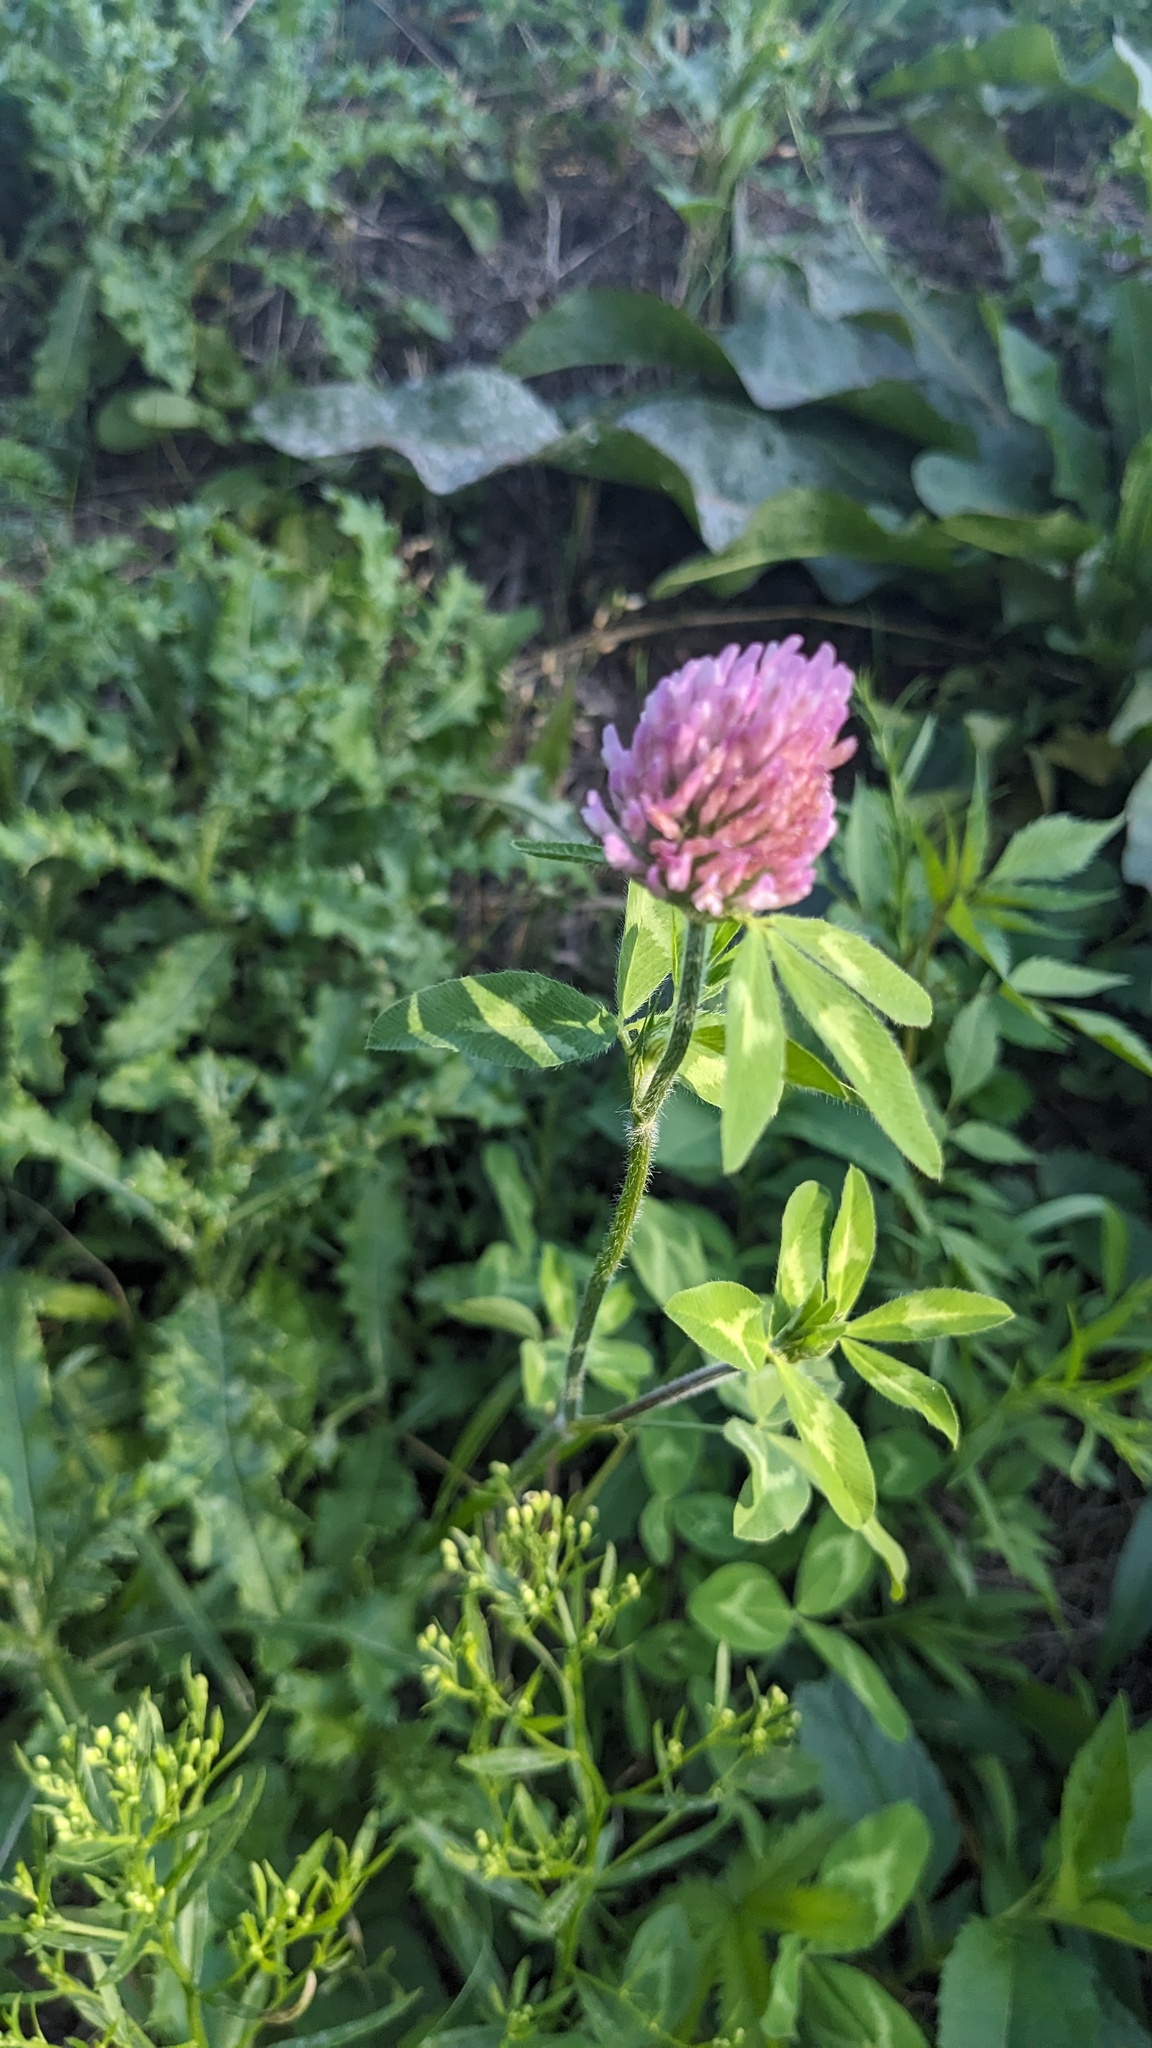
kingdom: Plantae
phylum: Tracheophyta
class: Magnoliopsida
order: Fabales
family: Fabaceae
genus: Trifolium
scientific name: Trifolium pratense
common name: Red clover
